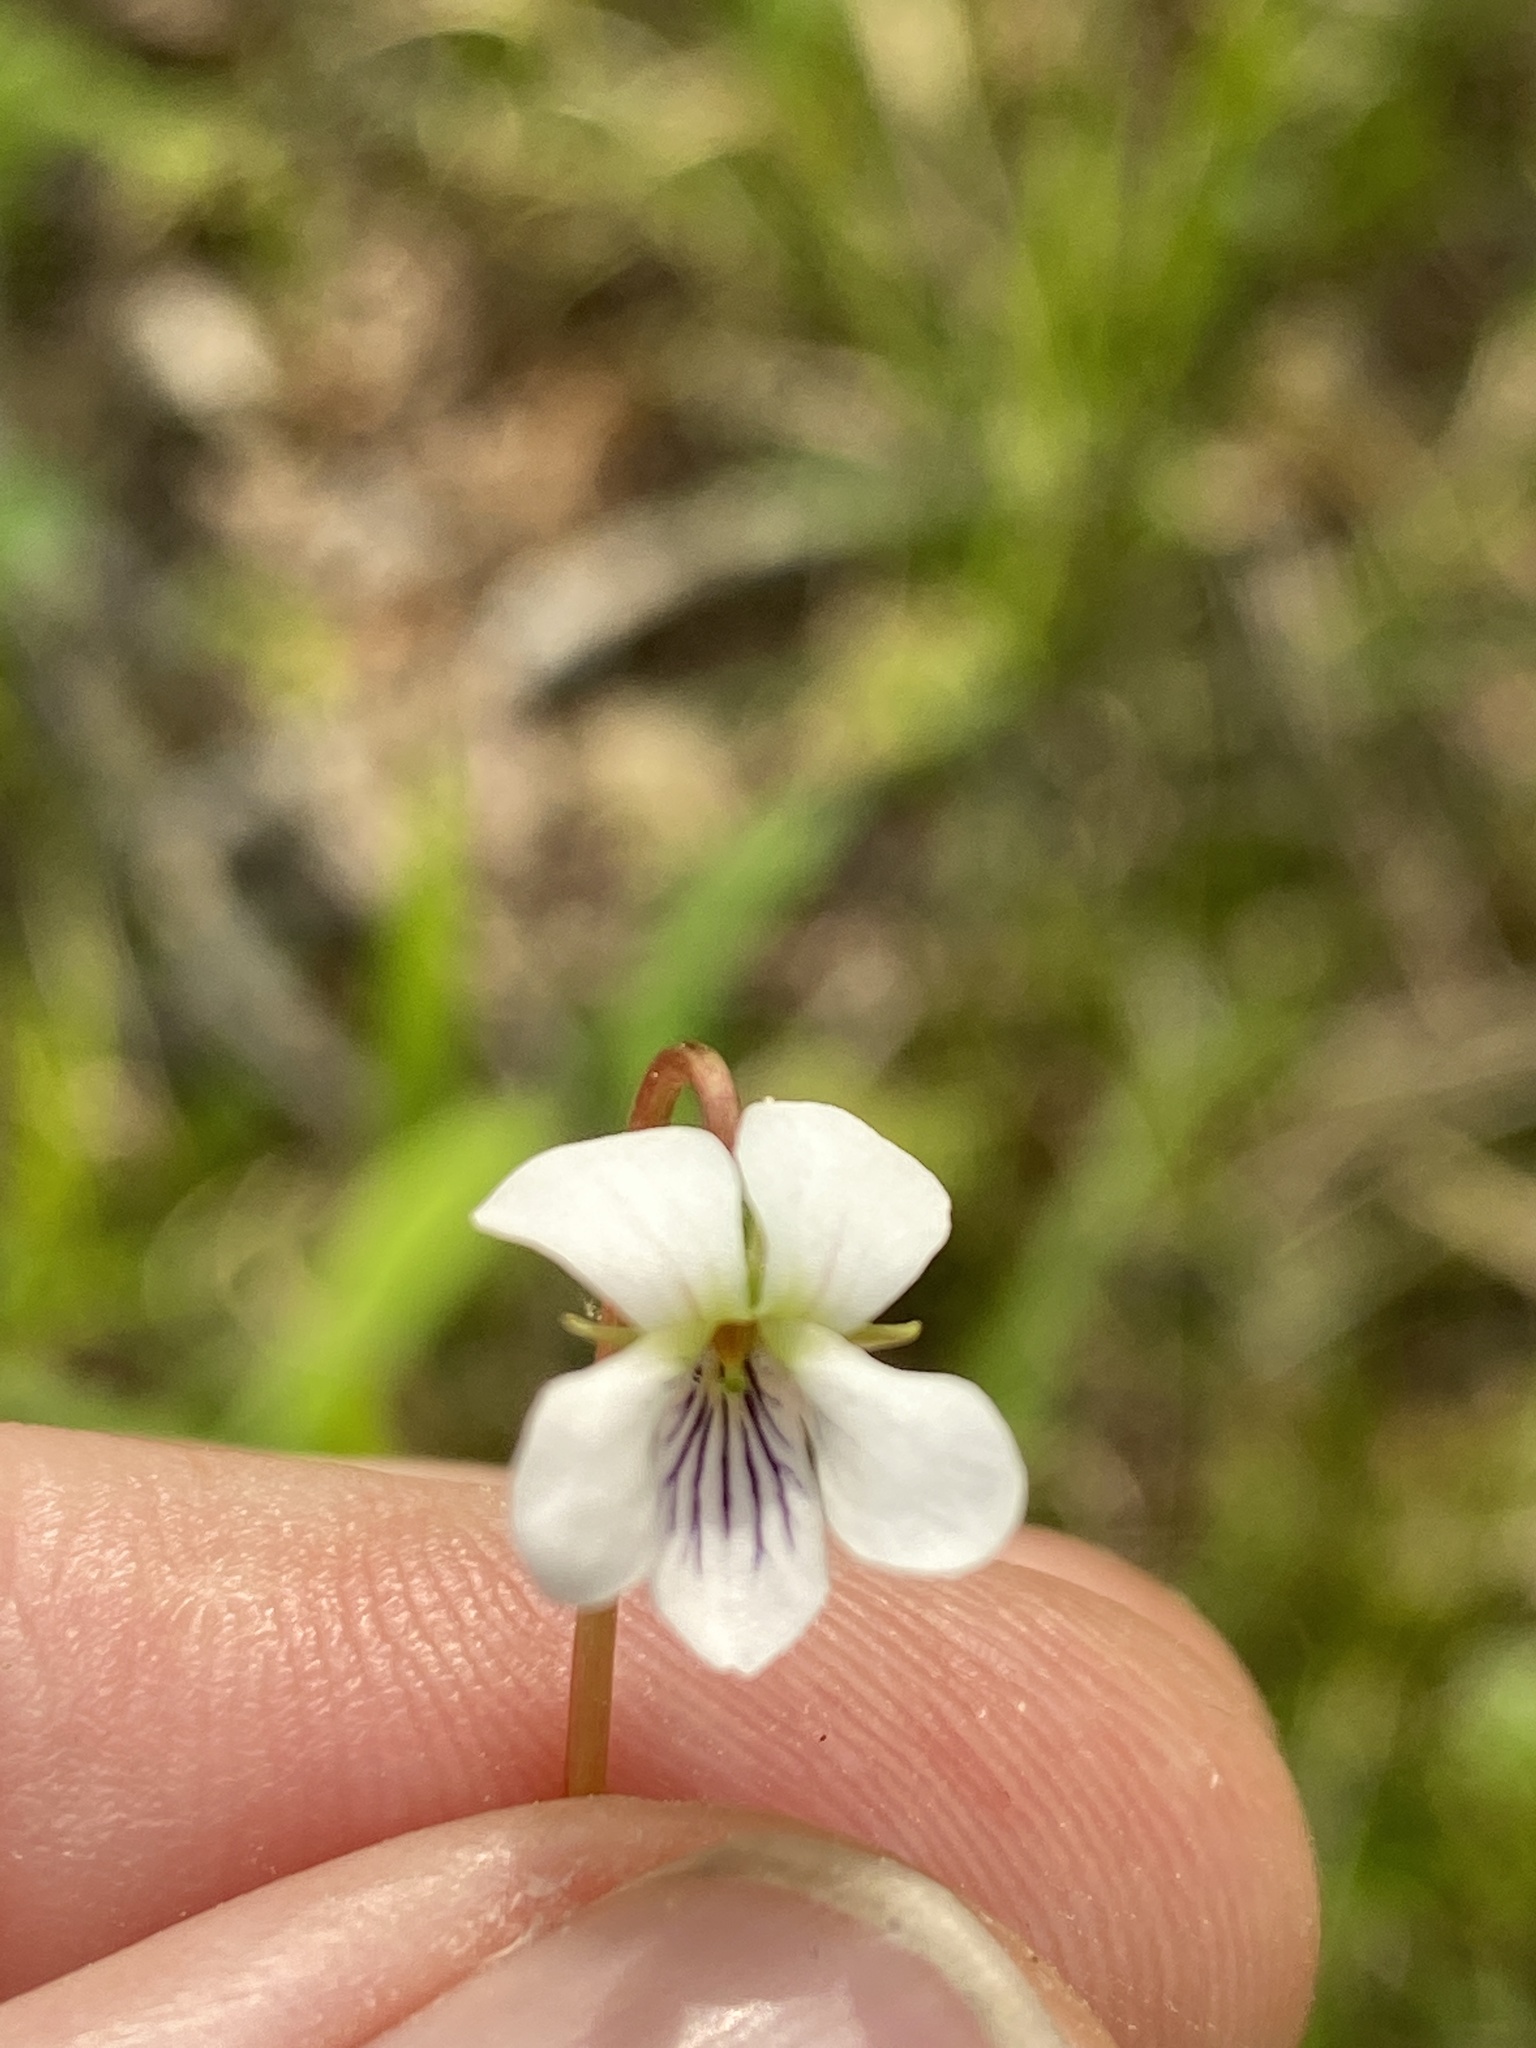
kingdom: Plantae
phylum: Tracheophyta
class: Magnoliopsida
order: Malpighiales
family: Violaceae
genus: Viola
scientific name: Viola primulifolia
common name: Primrose-leaf violet
